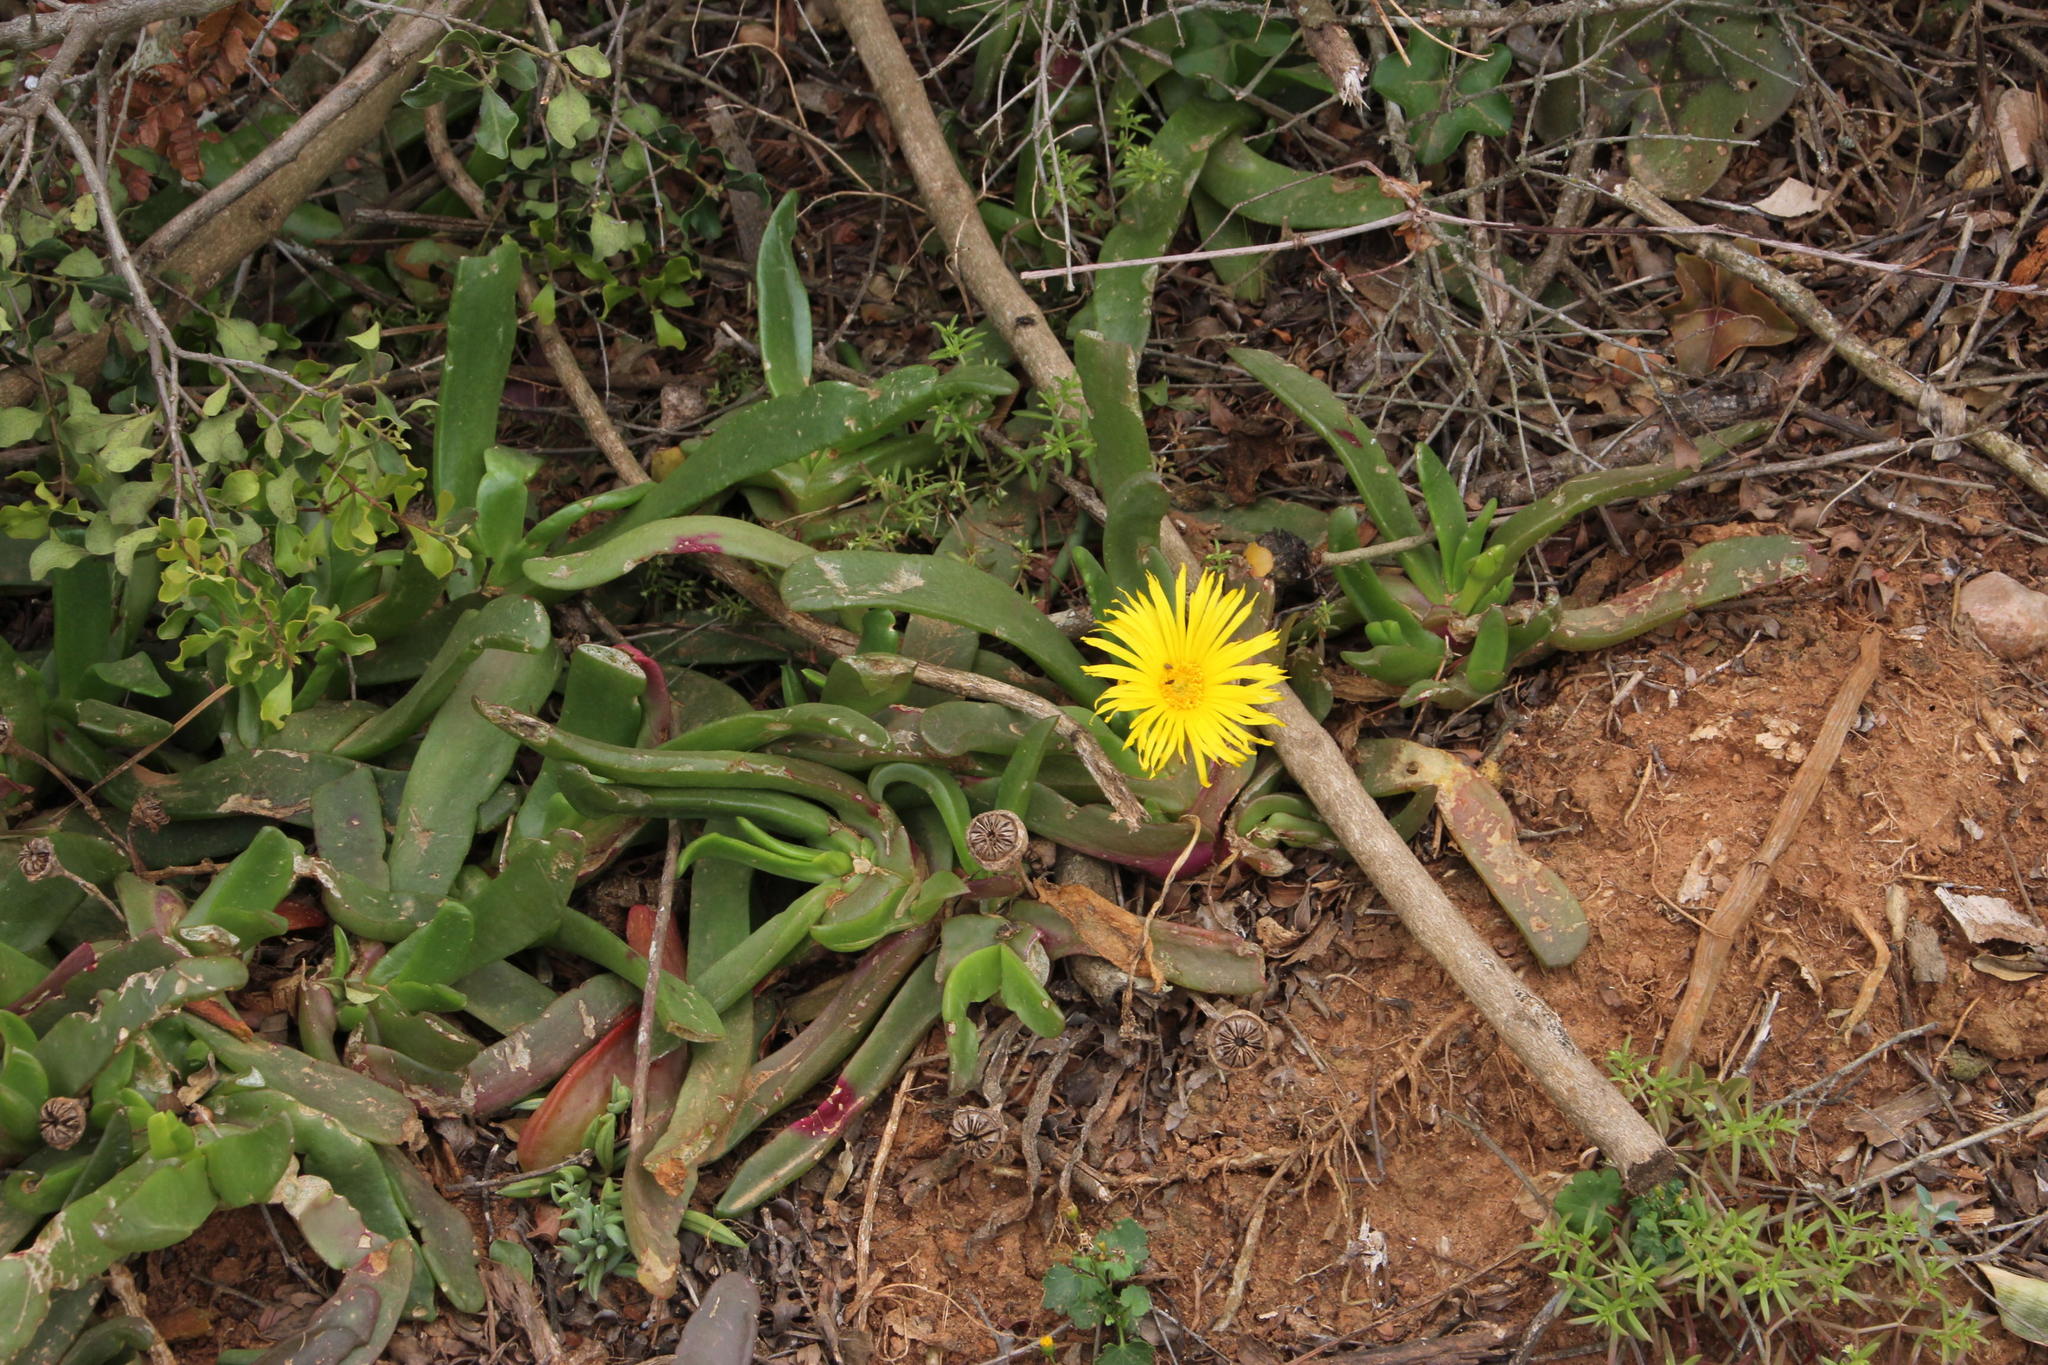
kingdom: Plantae
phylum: Tracheophyta
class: Magnoliopsida
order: Caryophyllales
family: Aizoaceae
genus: Glottiphyllum
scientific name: Glottiphyllum longum
